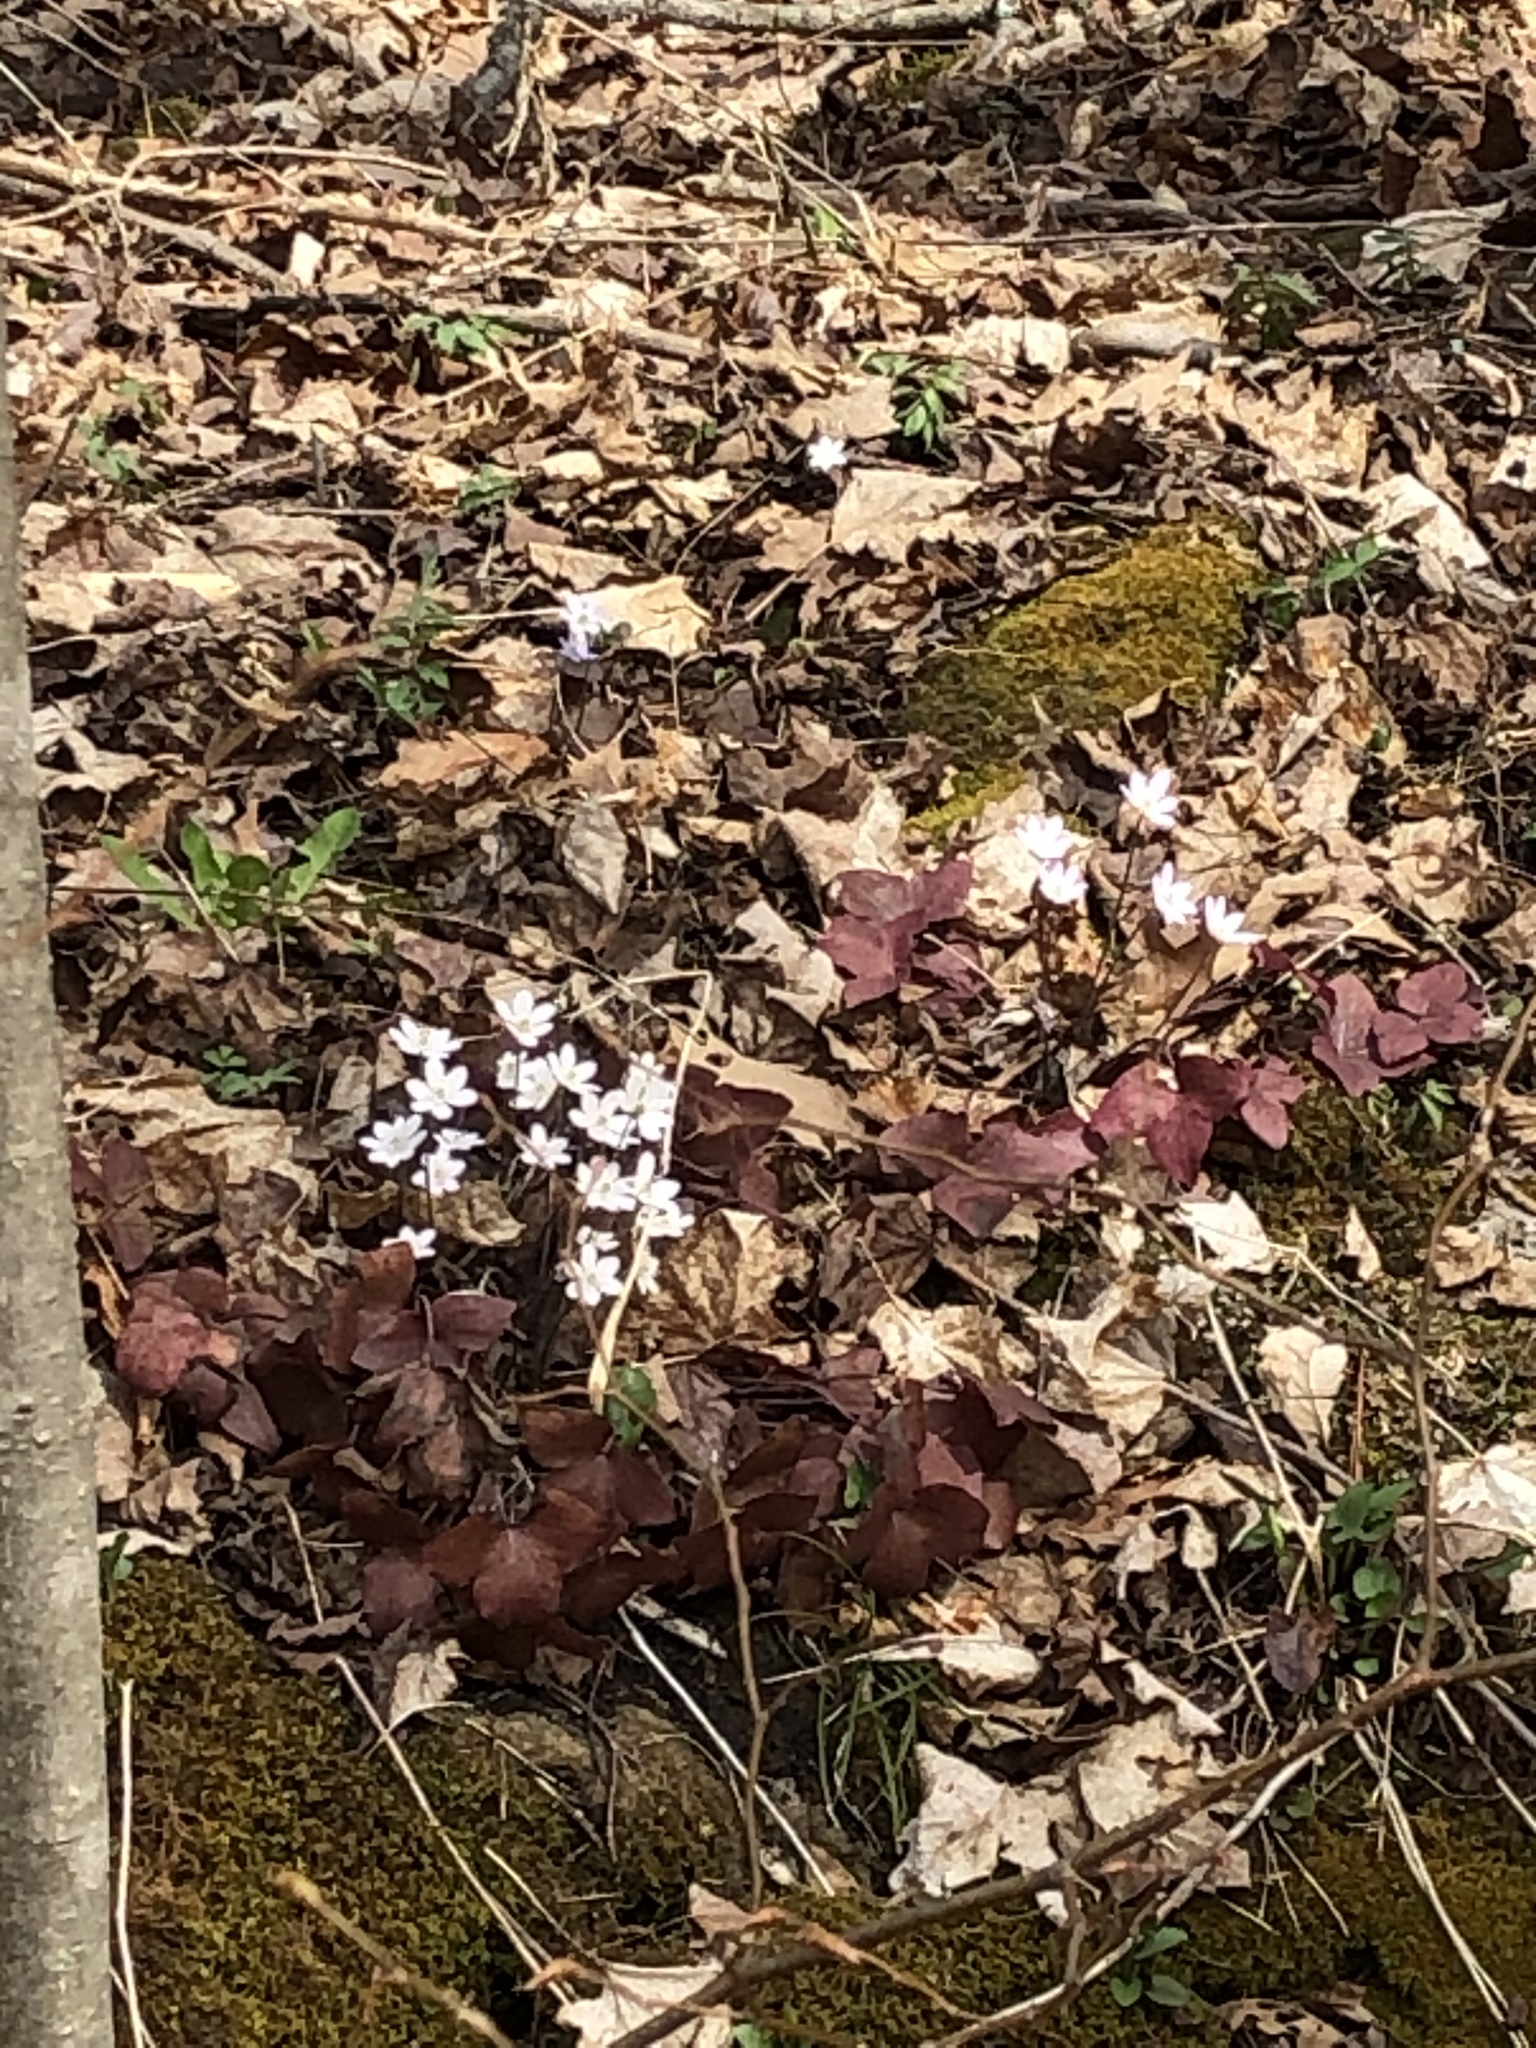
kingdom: Plantae
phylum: Tracheophyta
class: Magnoliopsida
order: Ranunculales
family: Ranunculaceae
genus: Hepatica
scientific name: Hepatica acutiloba
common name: Sharp-lobed hepatica
